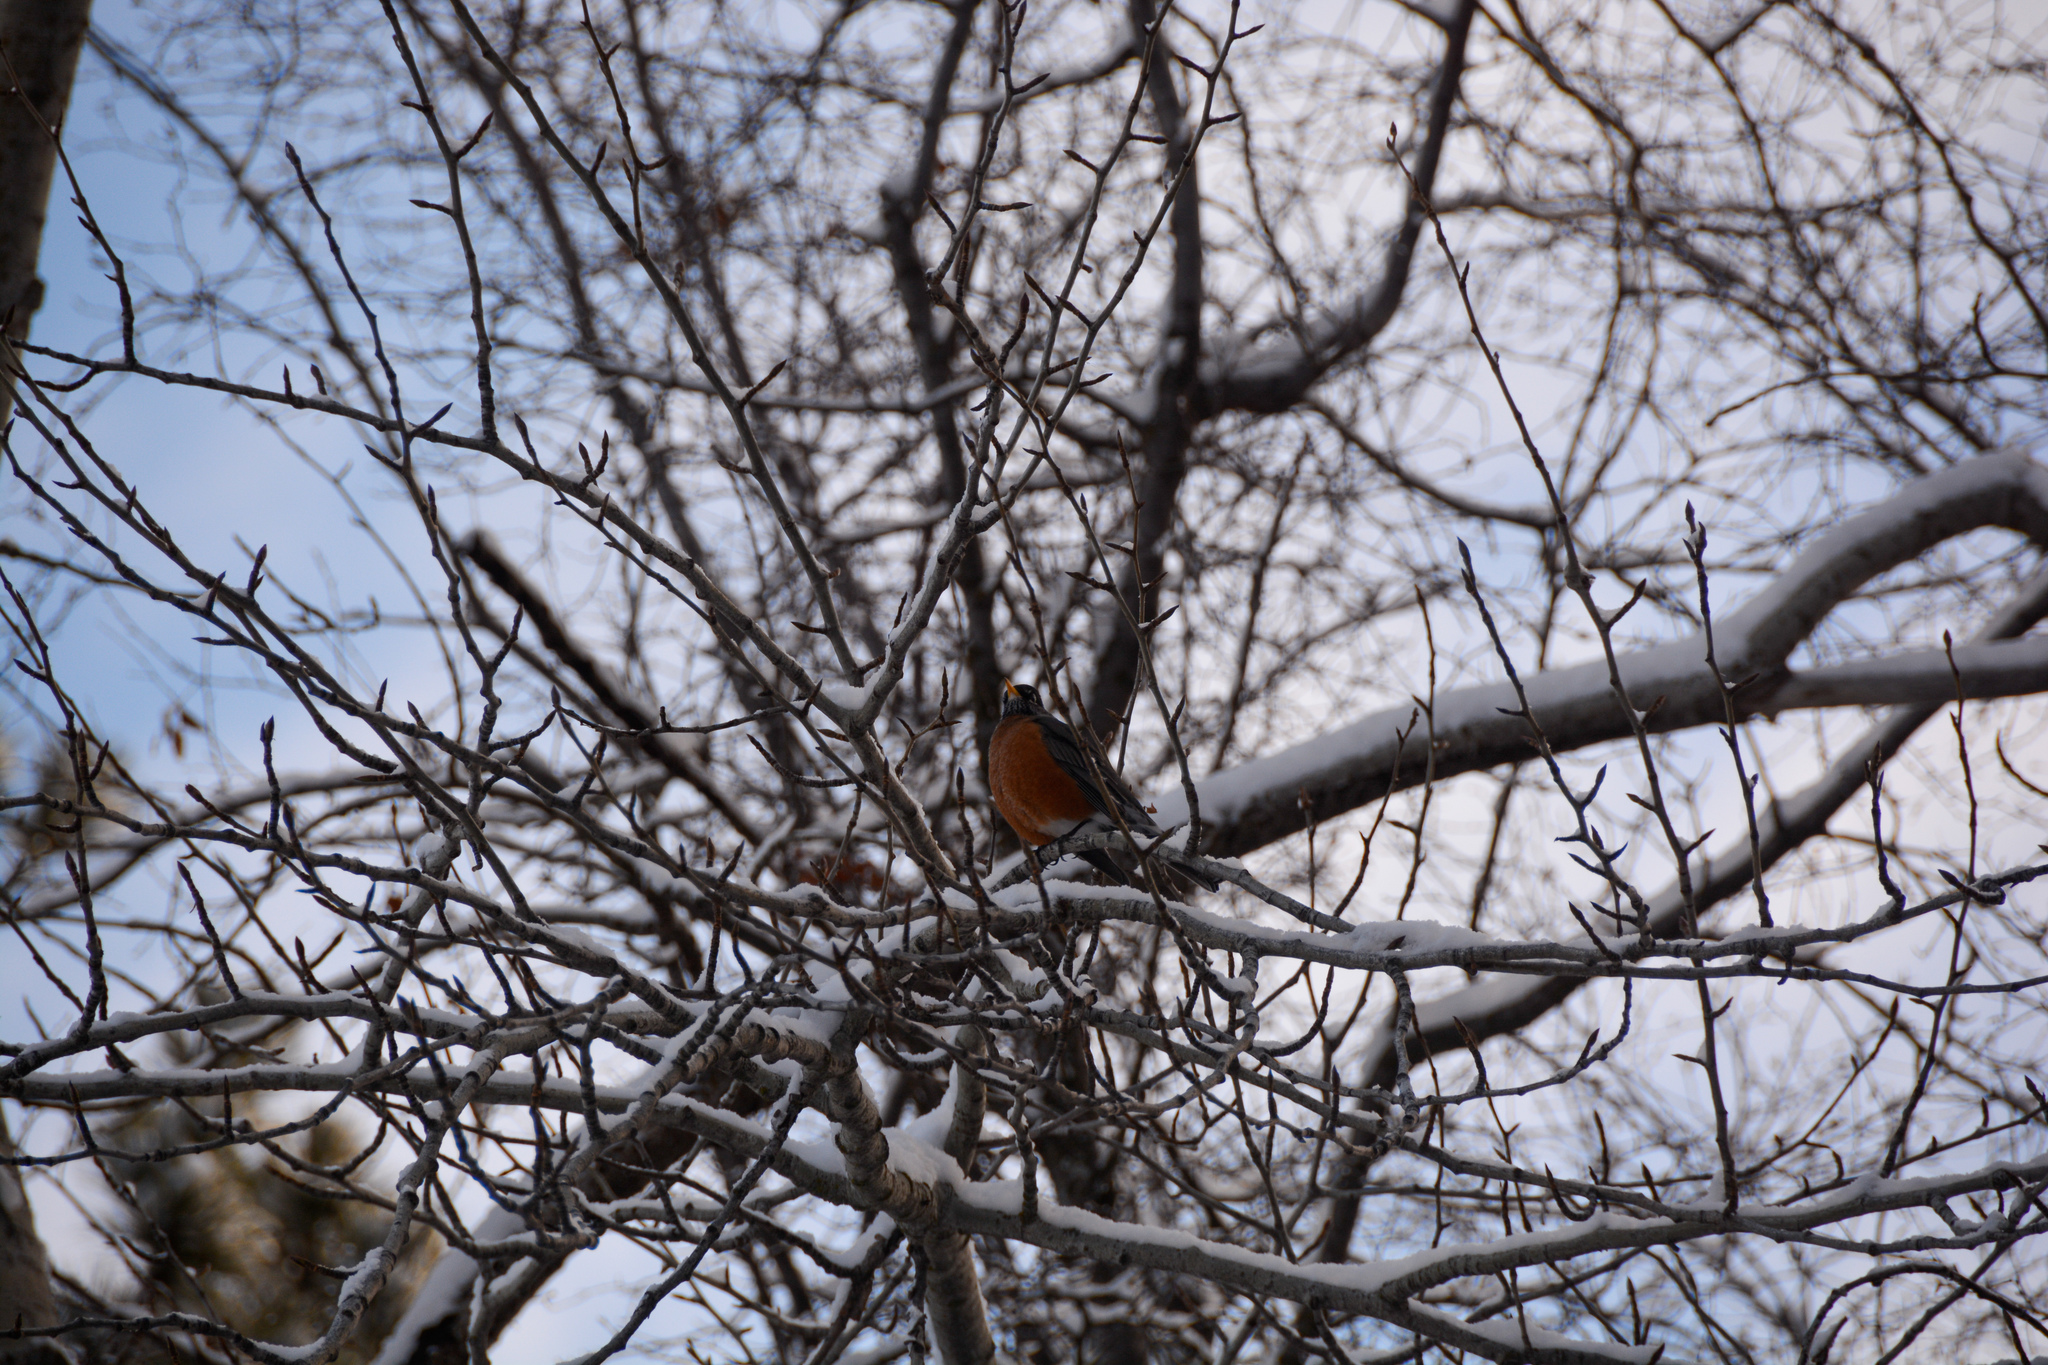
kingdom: Animalia
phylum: Chordata
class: Aves
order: Passeriformes
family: Turdidae
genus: Turdus
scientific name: Turdus migratorius
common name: American robin
